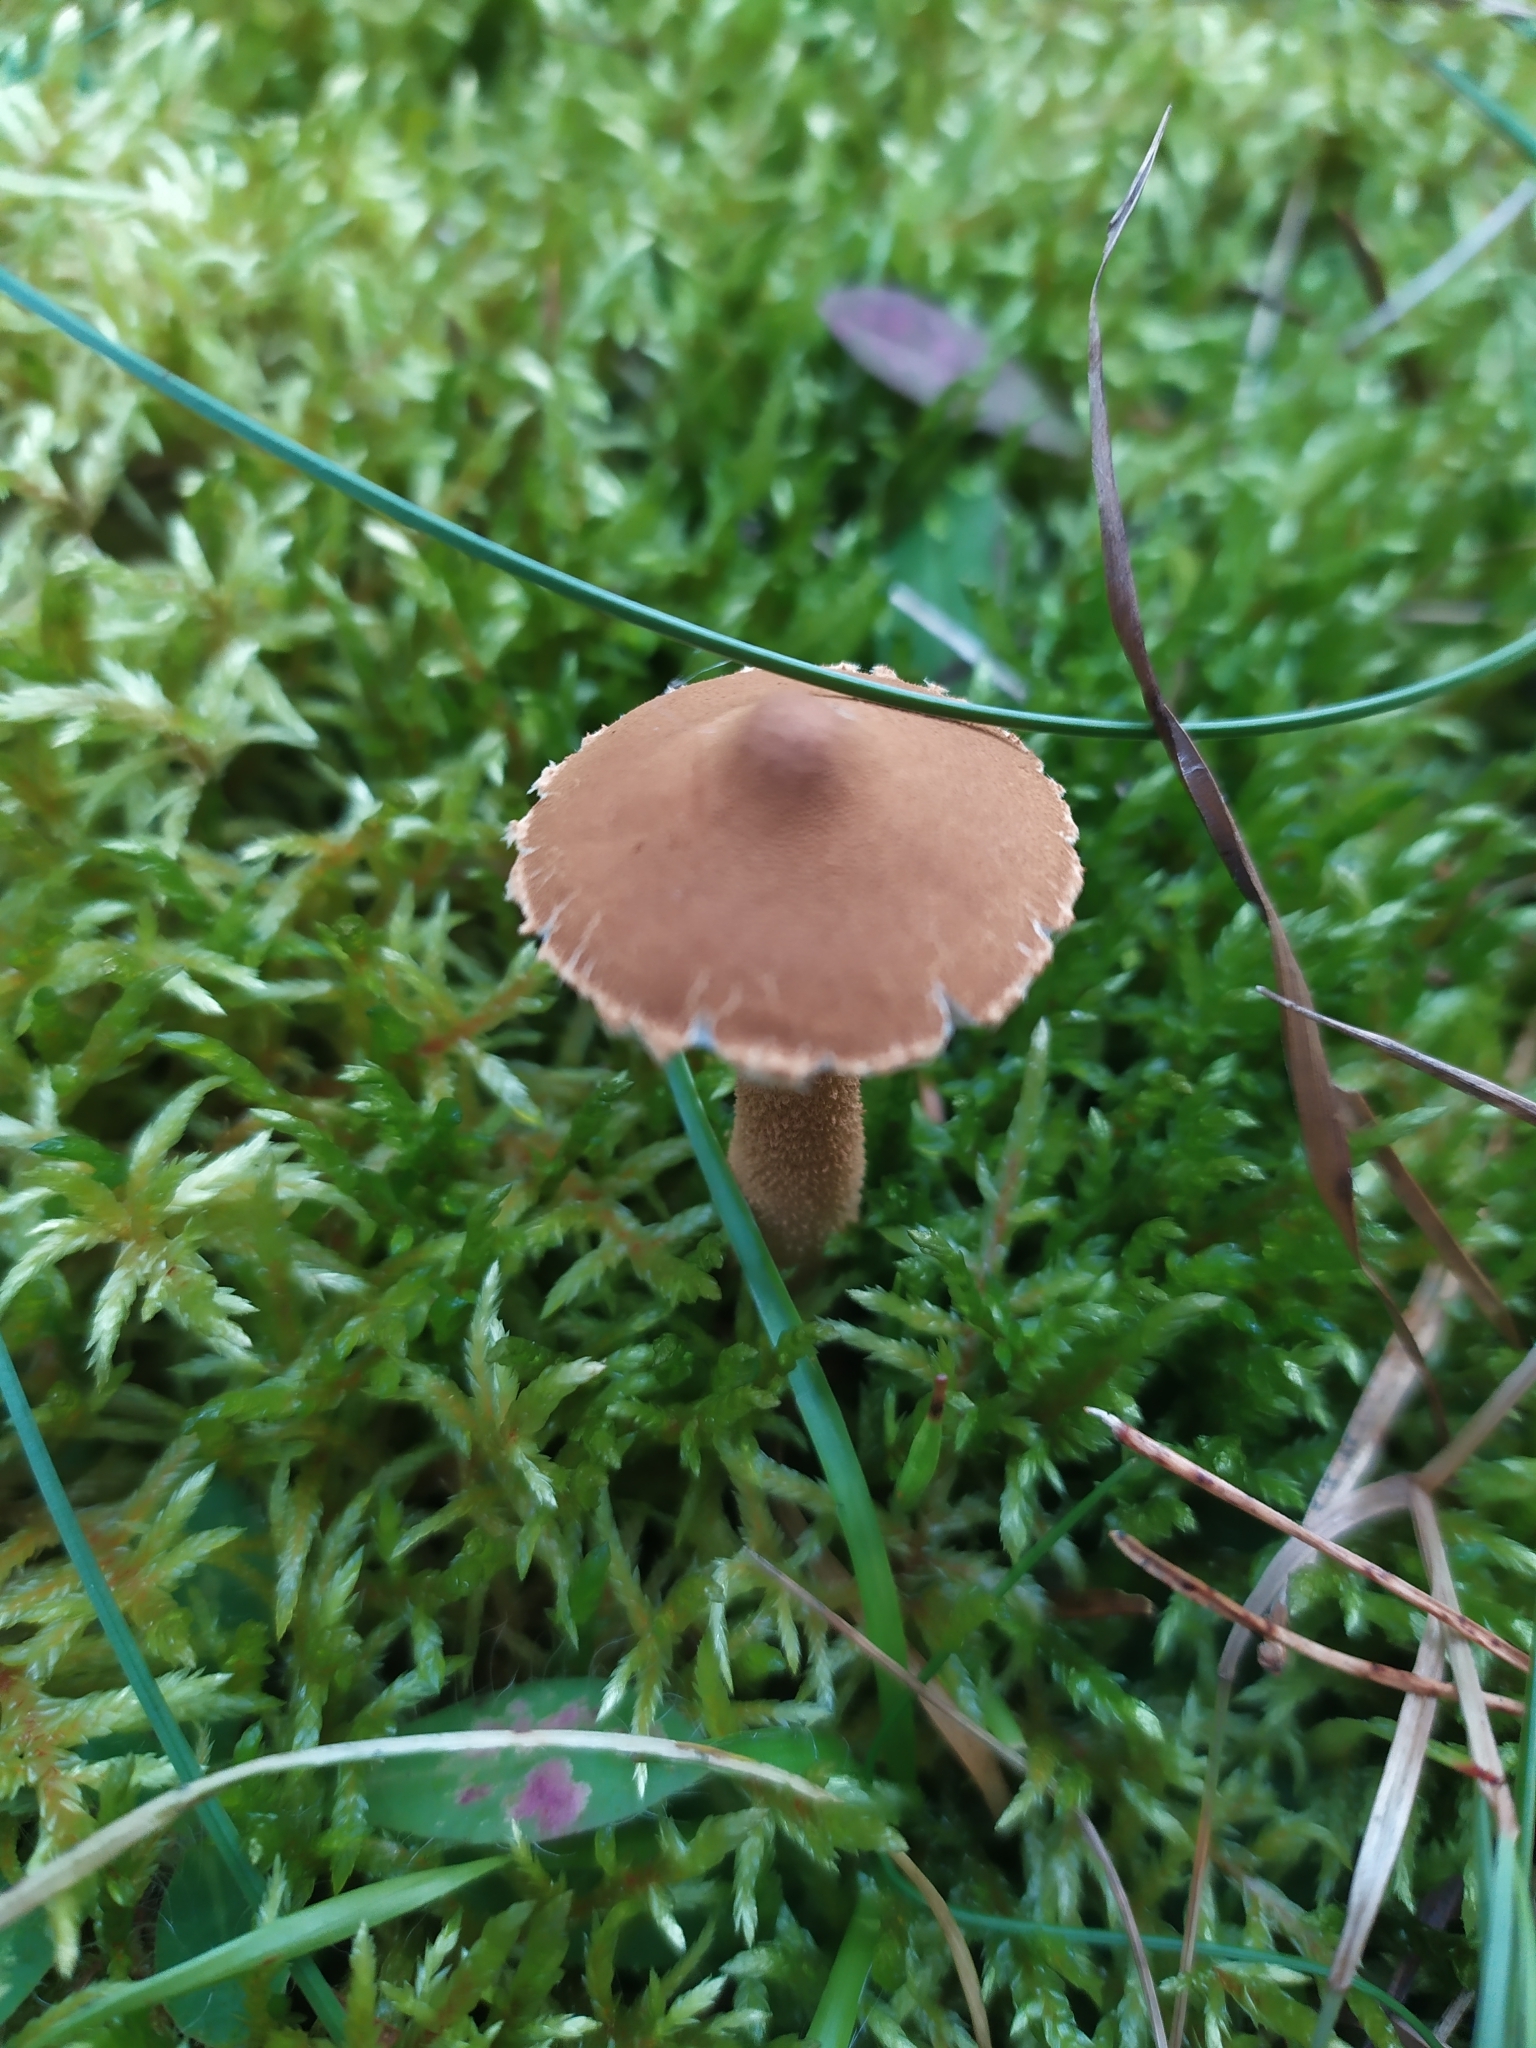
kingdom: Fungi
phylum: Basidiomycota
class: Agaricomycetes
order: Agaricales
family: Tricholomataceae
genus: Cystoderma
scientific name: Cystoderma amianthinum
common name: Earthy powdercap
